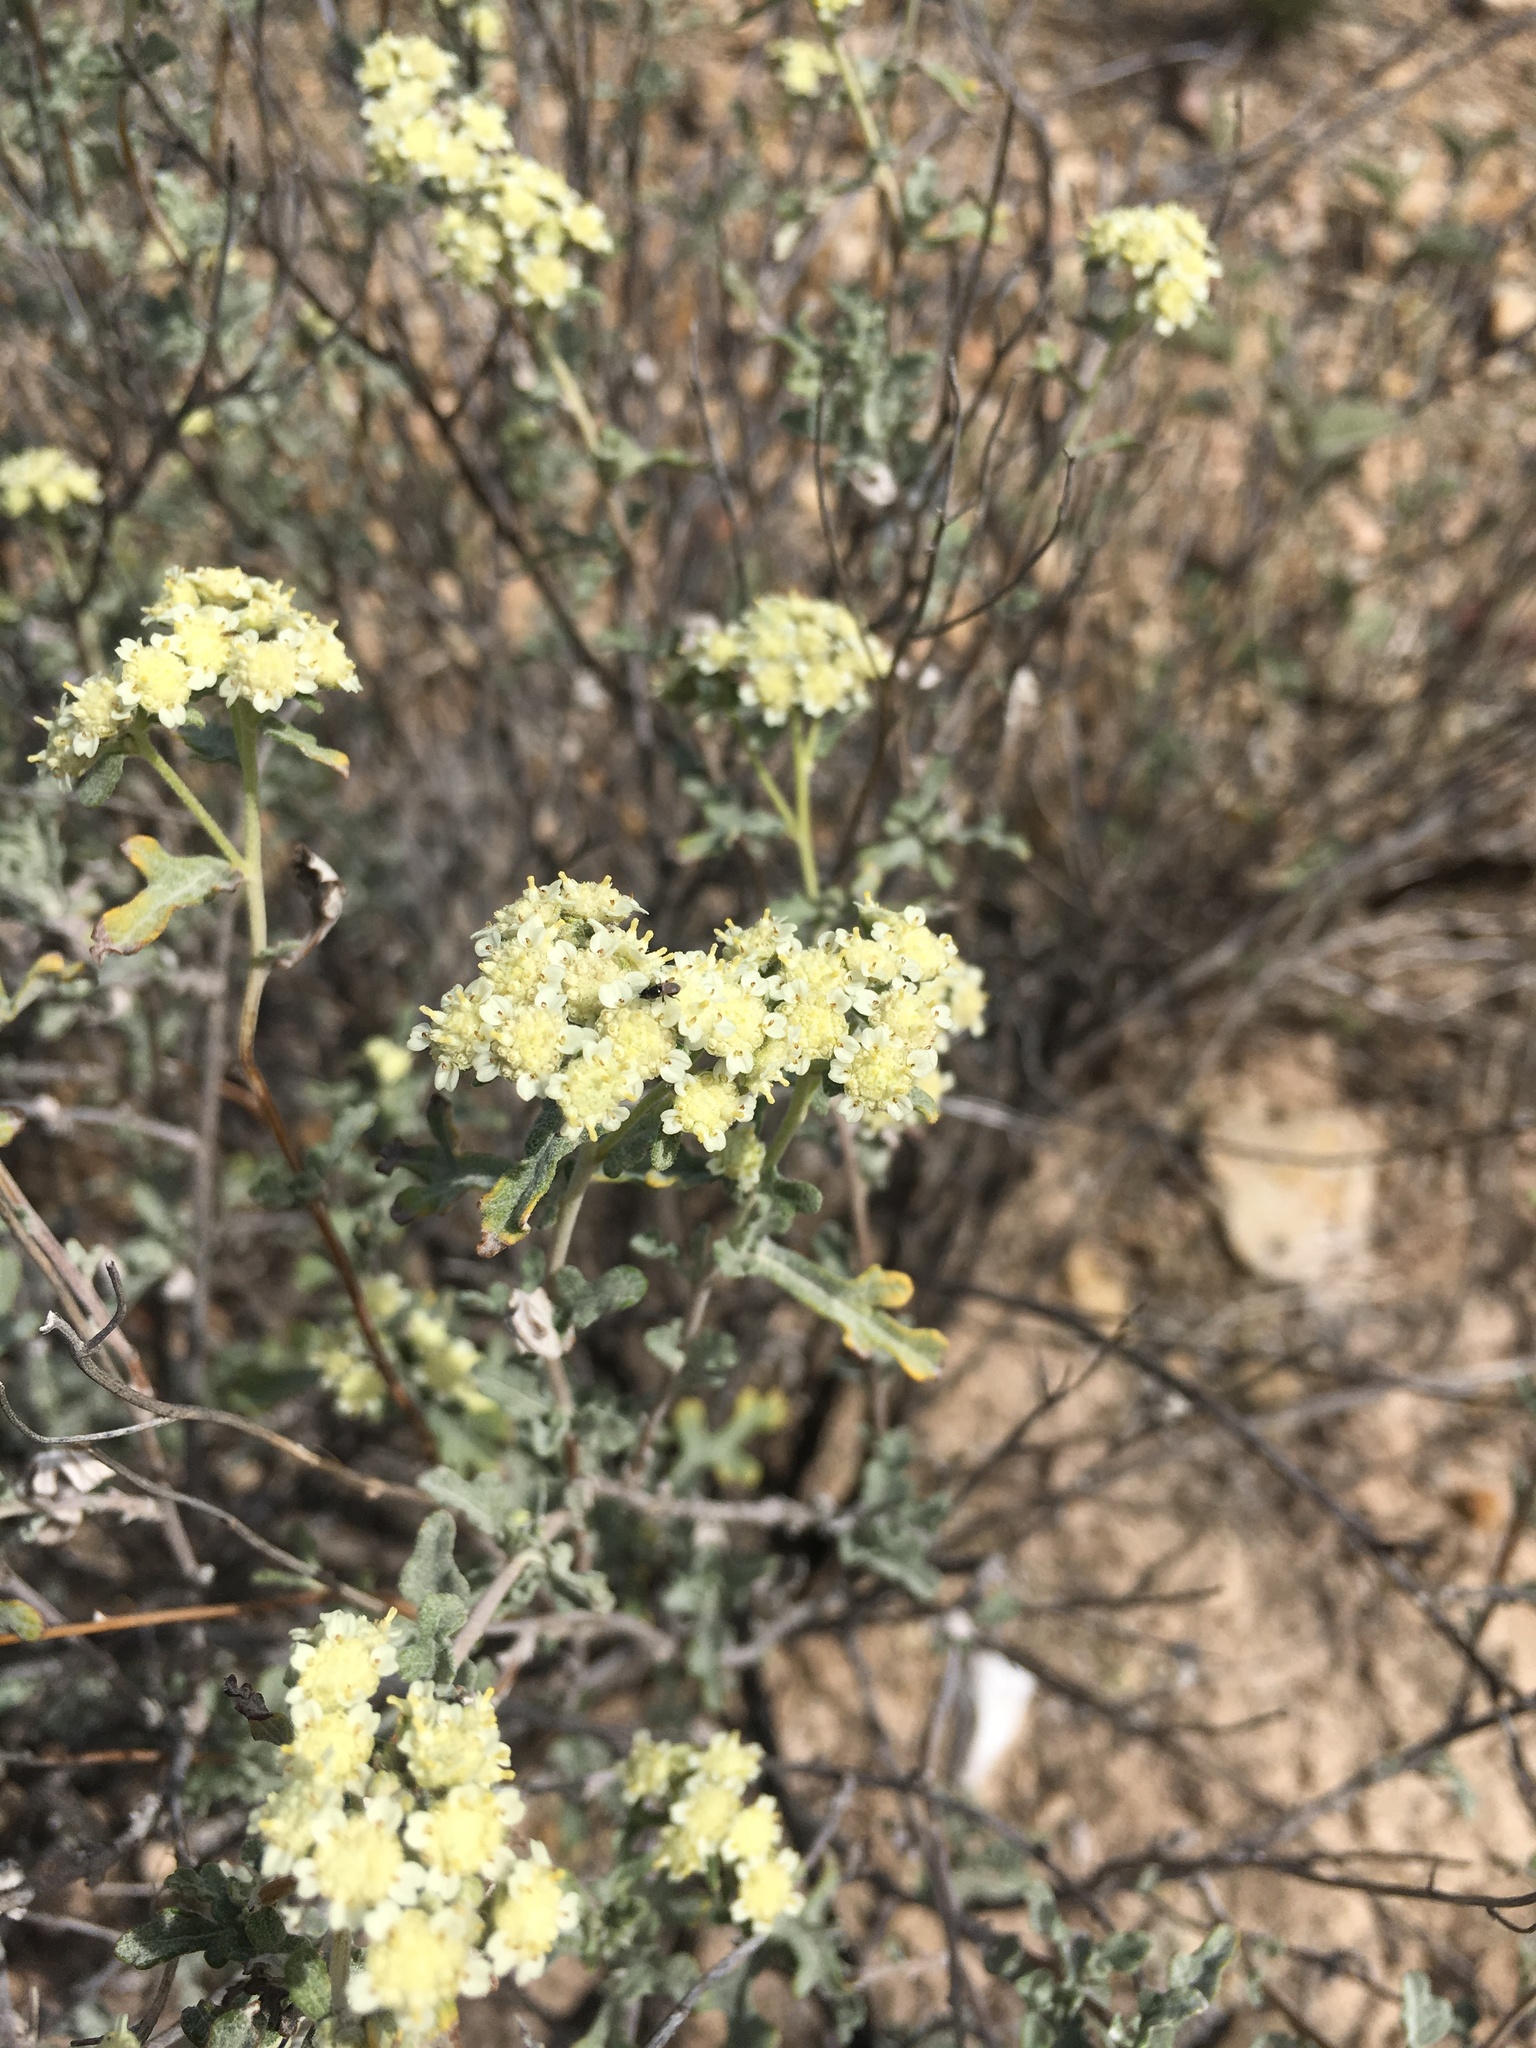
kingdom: Plantae
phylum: Tracheophyta
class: Magnoliopsida
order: Asterales
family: Asteraceae
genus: Parthenium
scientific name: Parthenium incanum
